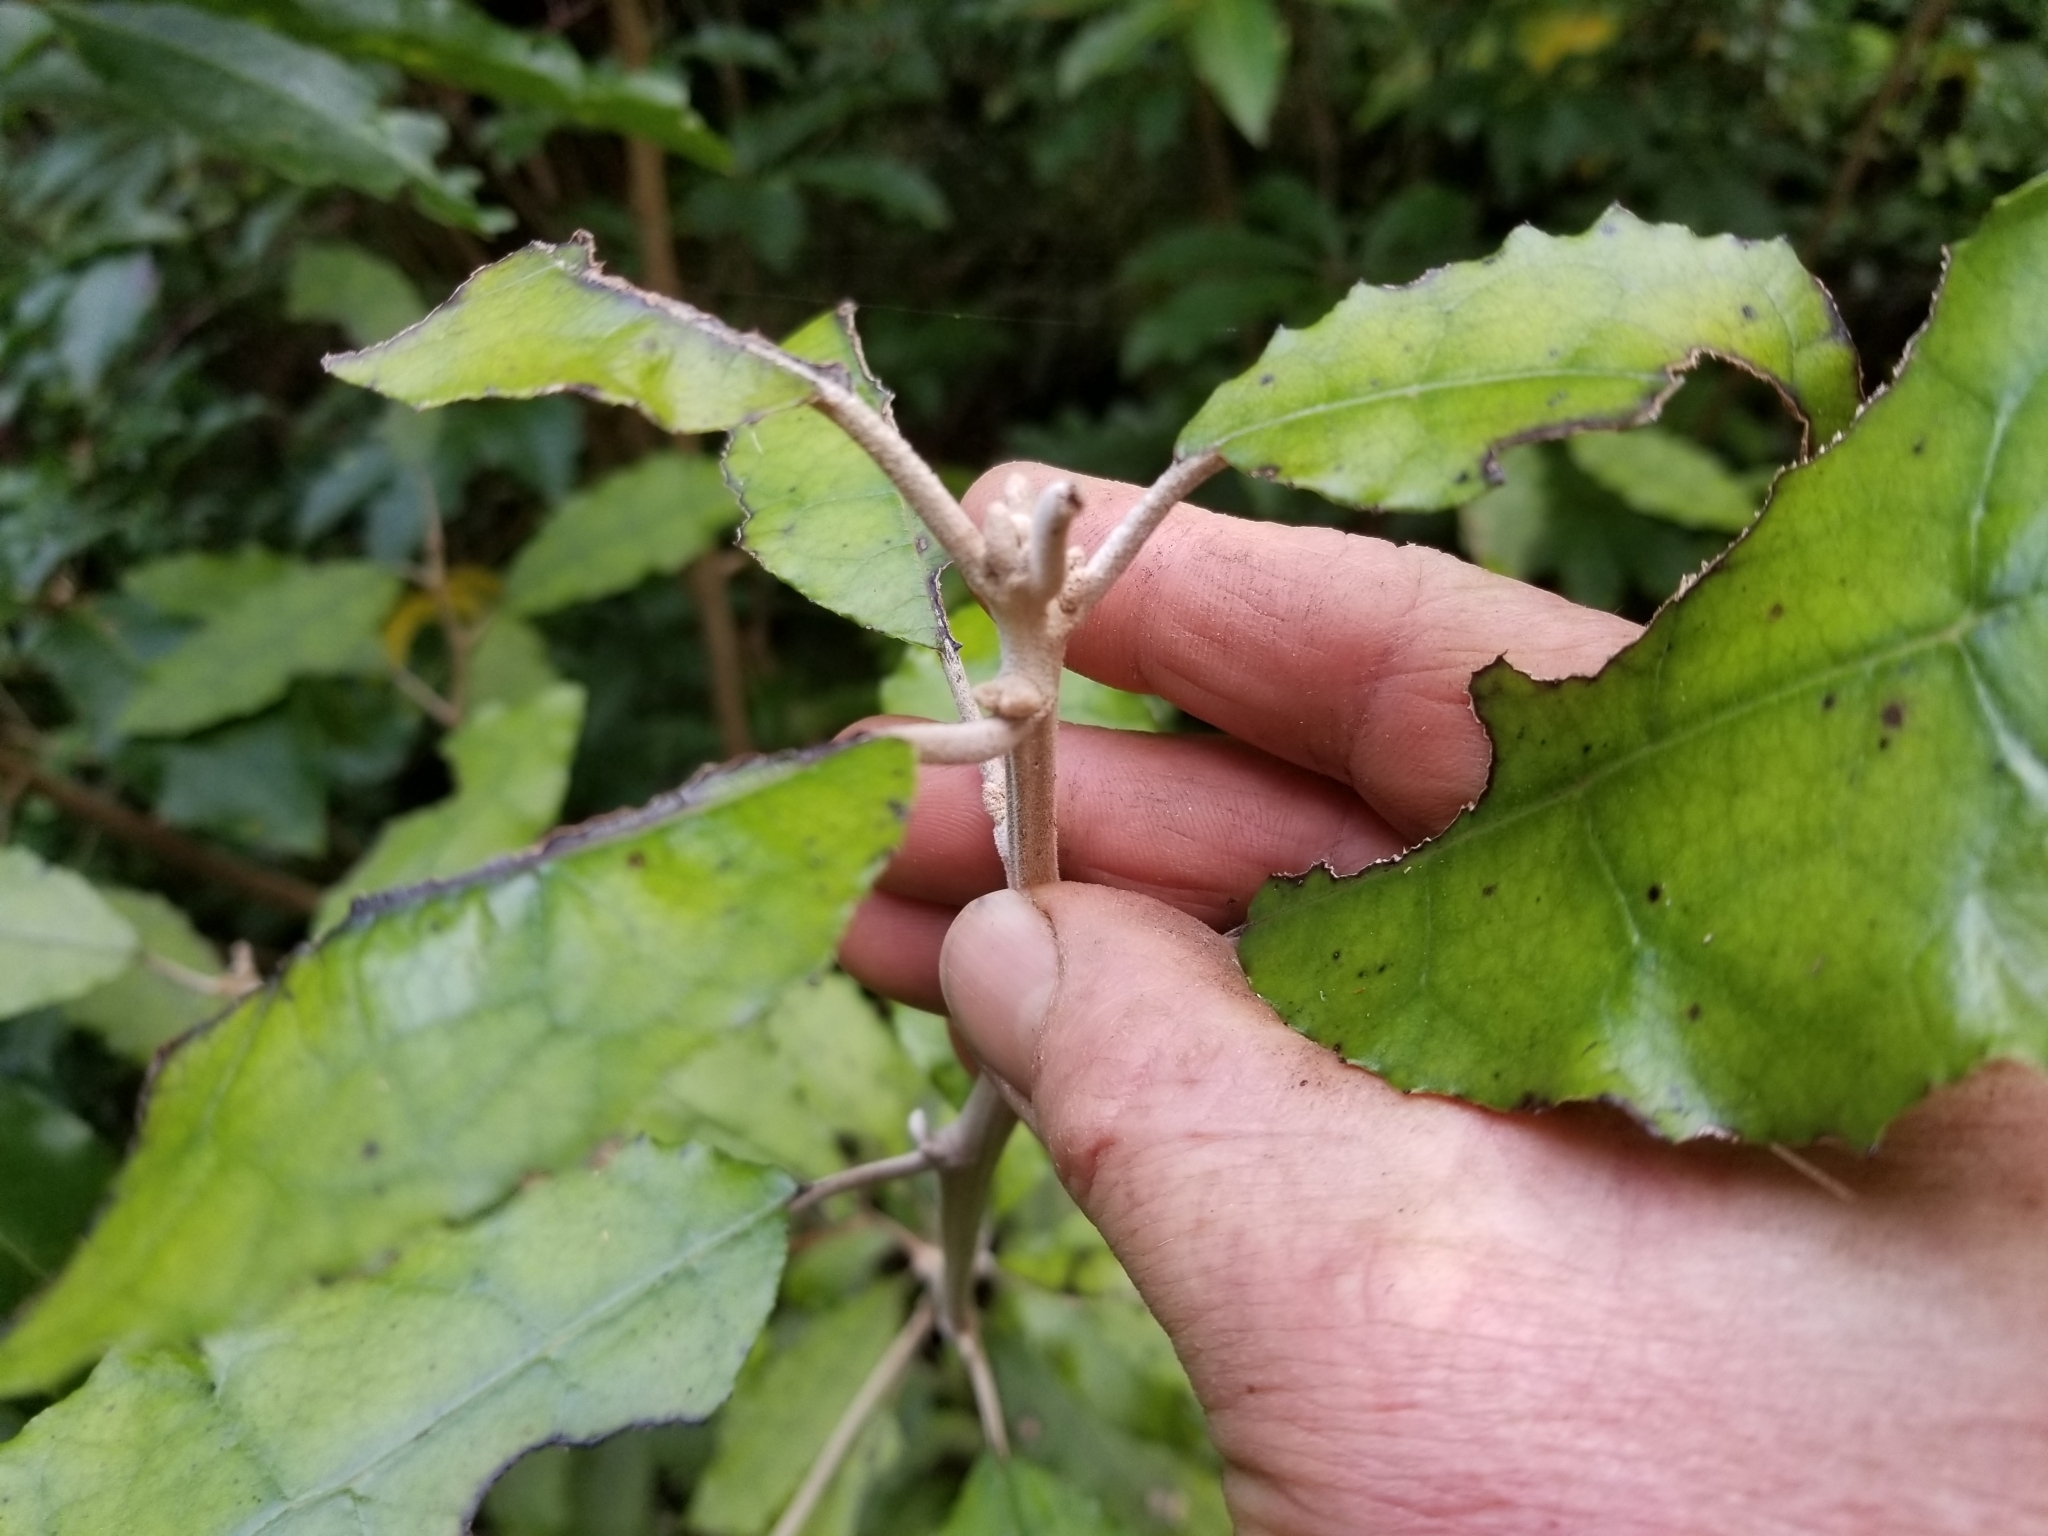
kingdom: Plantae
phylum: Tracheophyta
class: Magnoliopsida
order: Asterales
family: Asteraceae
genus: Olearia
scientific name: Olearia rani
